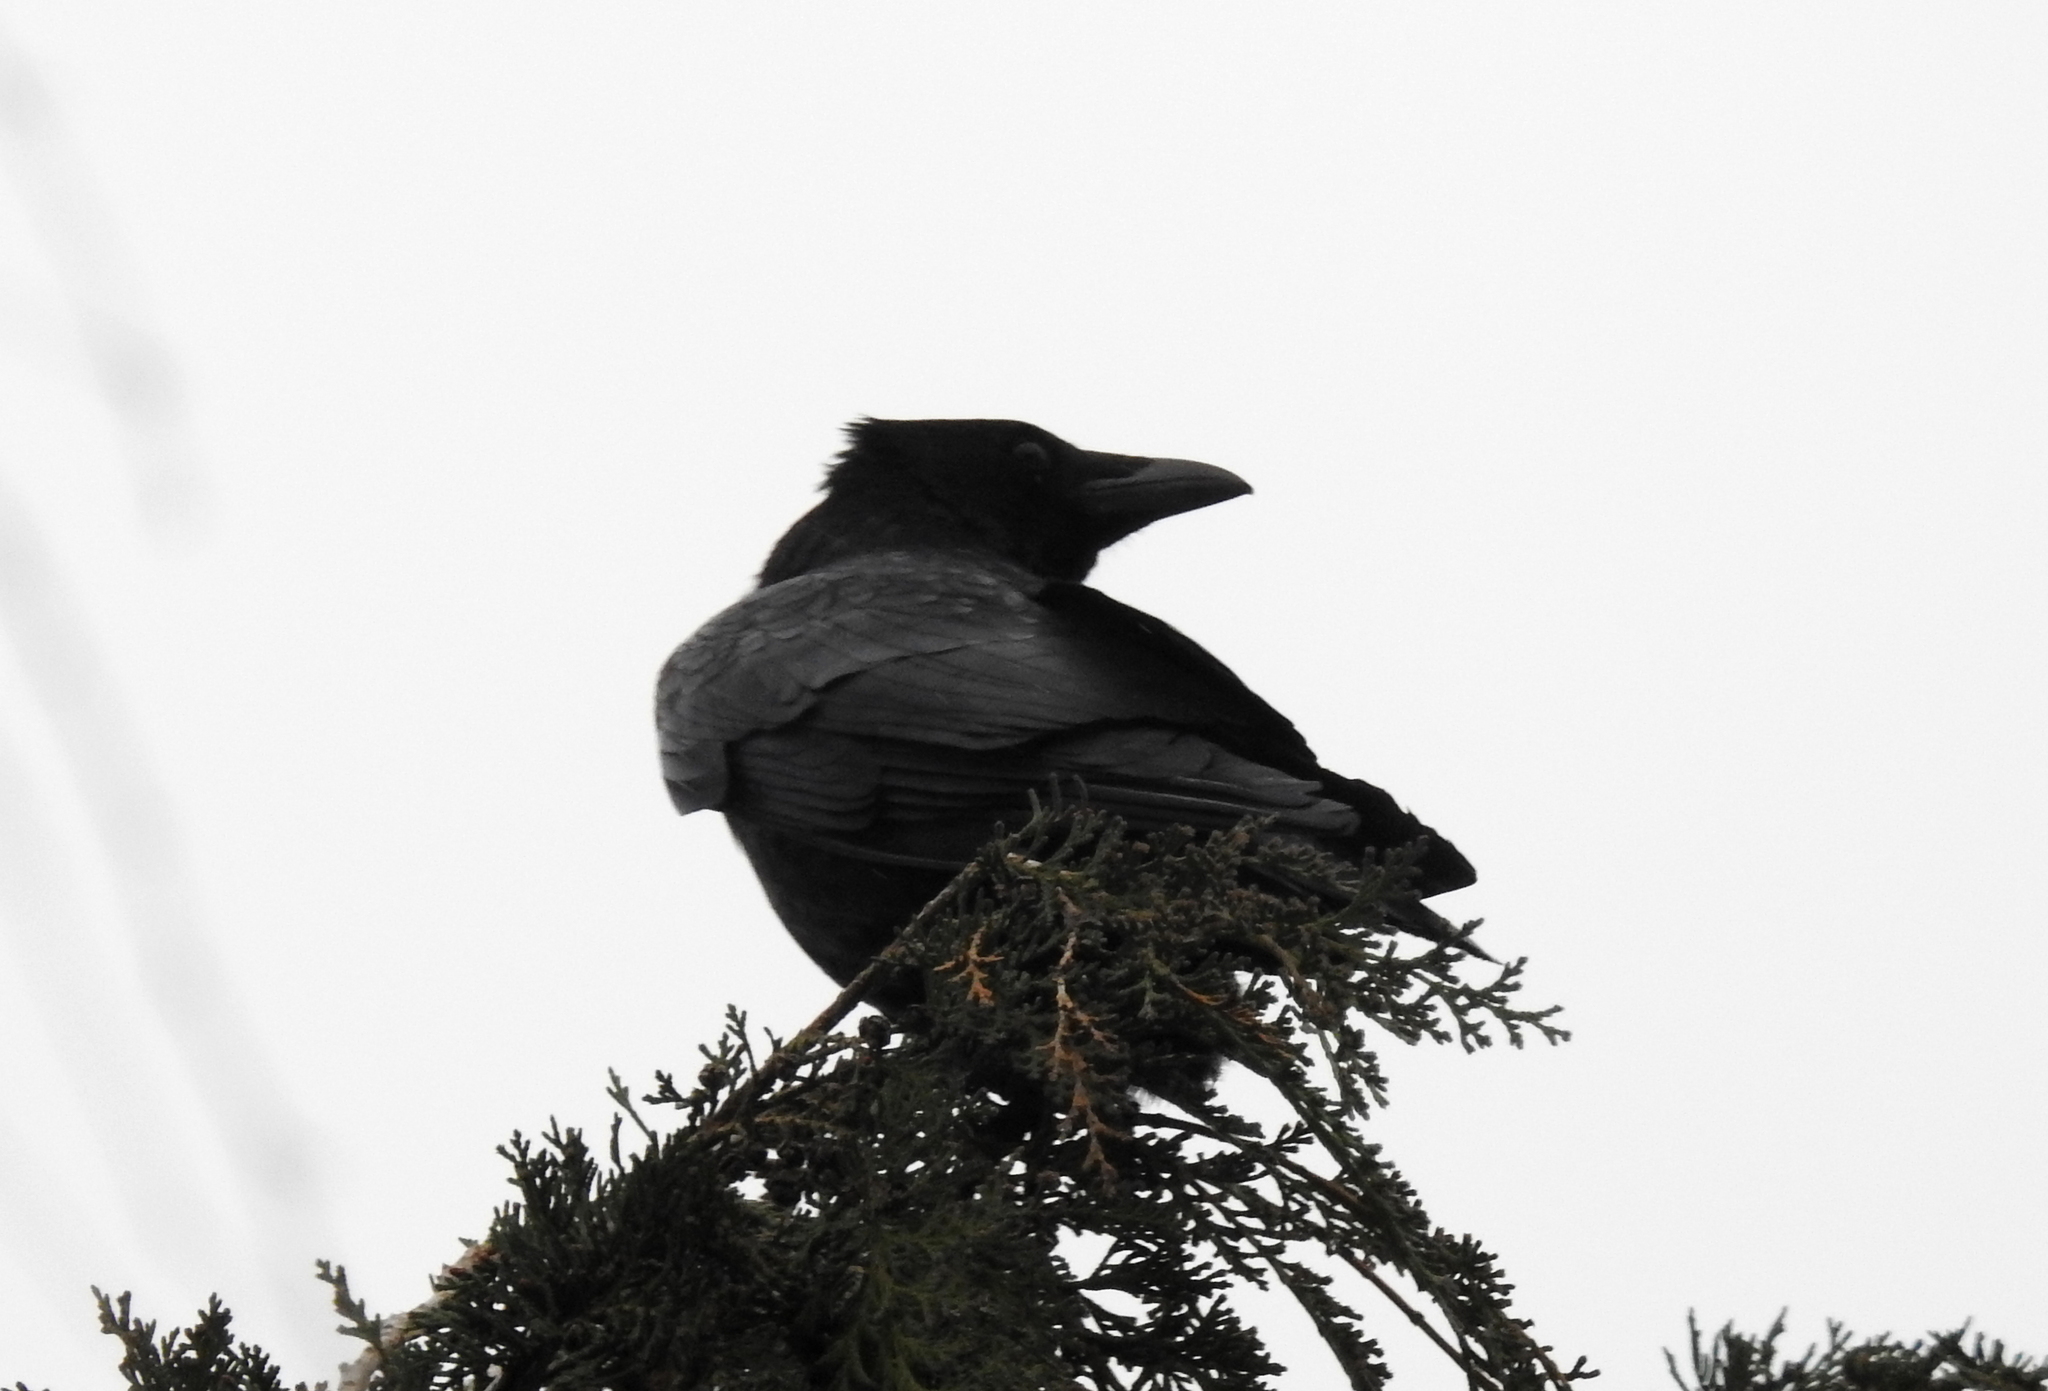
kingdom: Animalia
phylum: Chordata
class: Aves
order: Passeriformes
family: Corvidae
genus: Corvus
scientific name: Corvus corone
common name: Carrion crow
